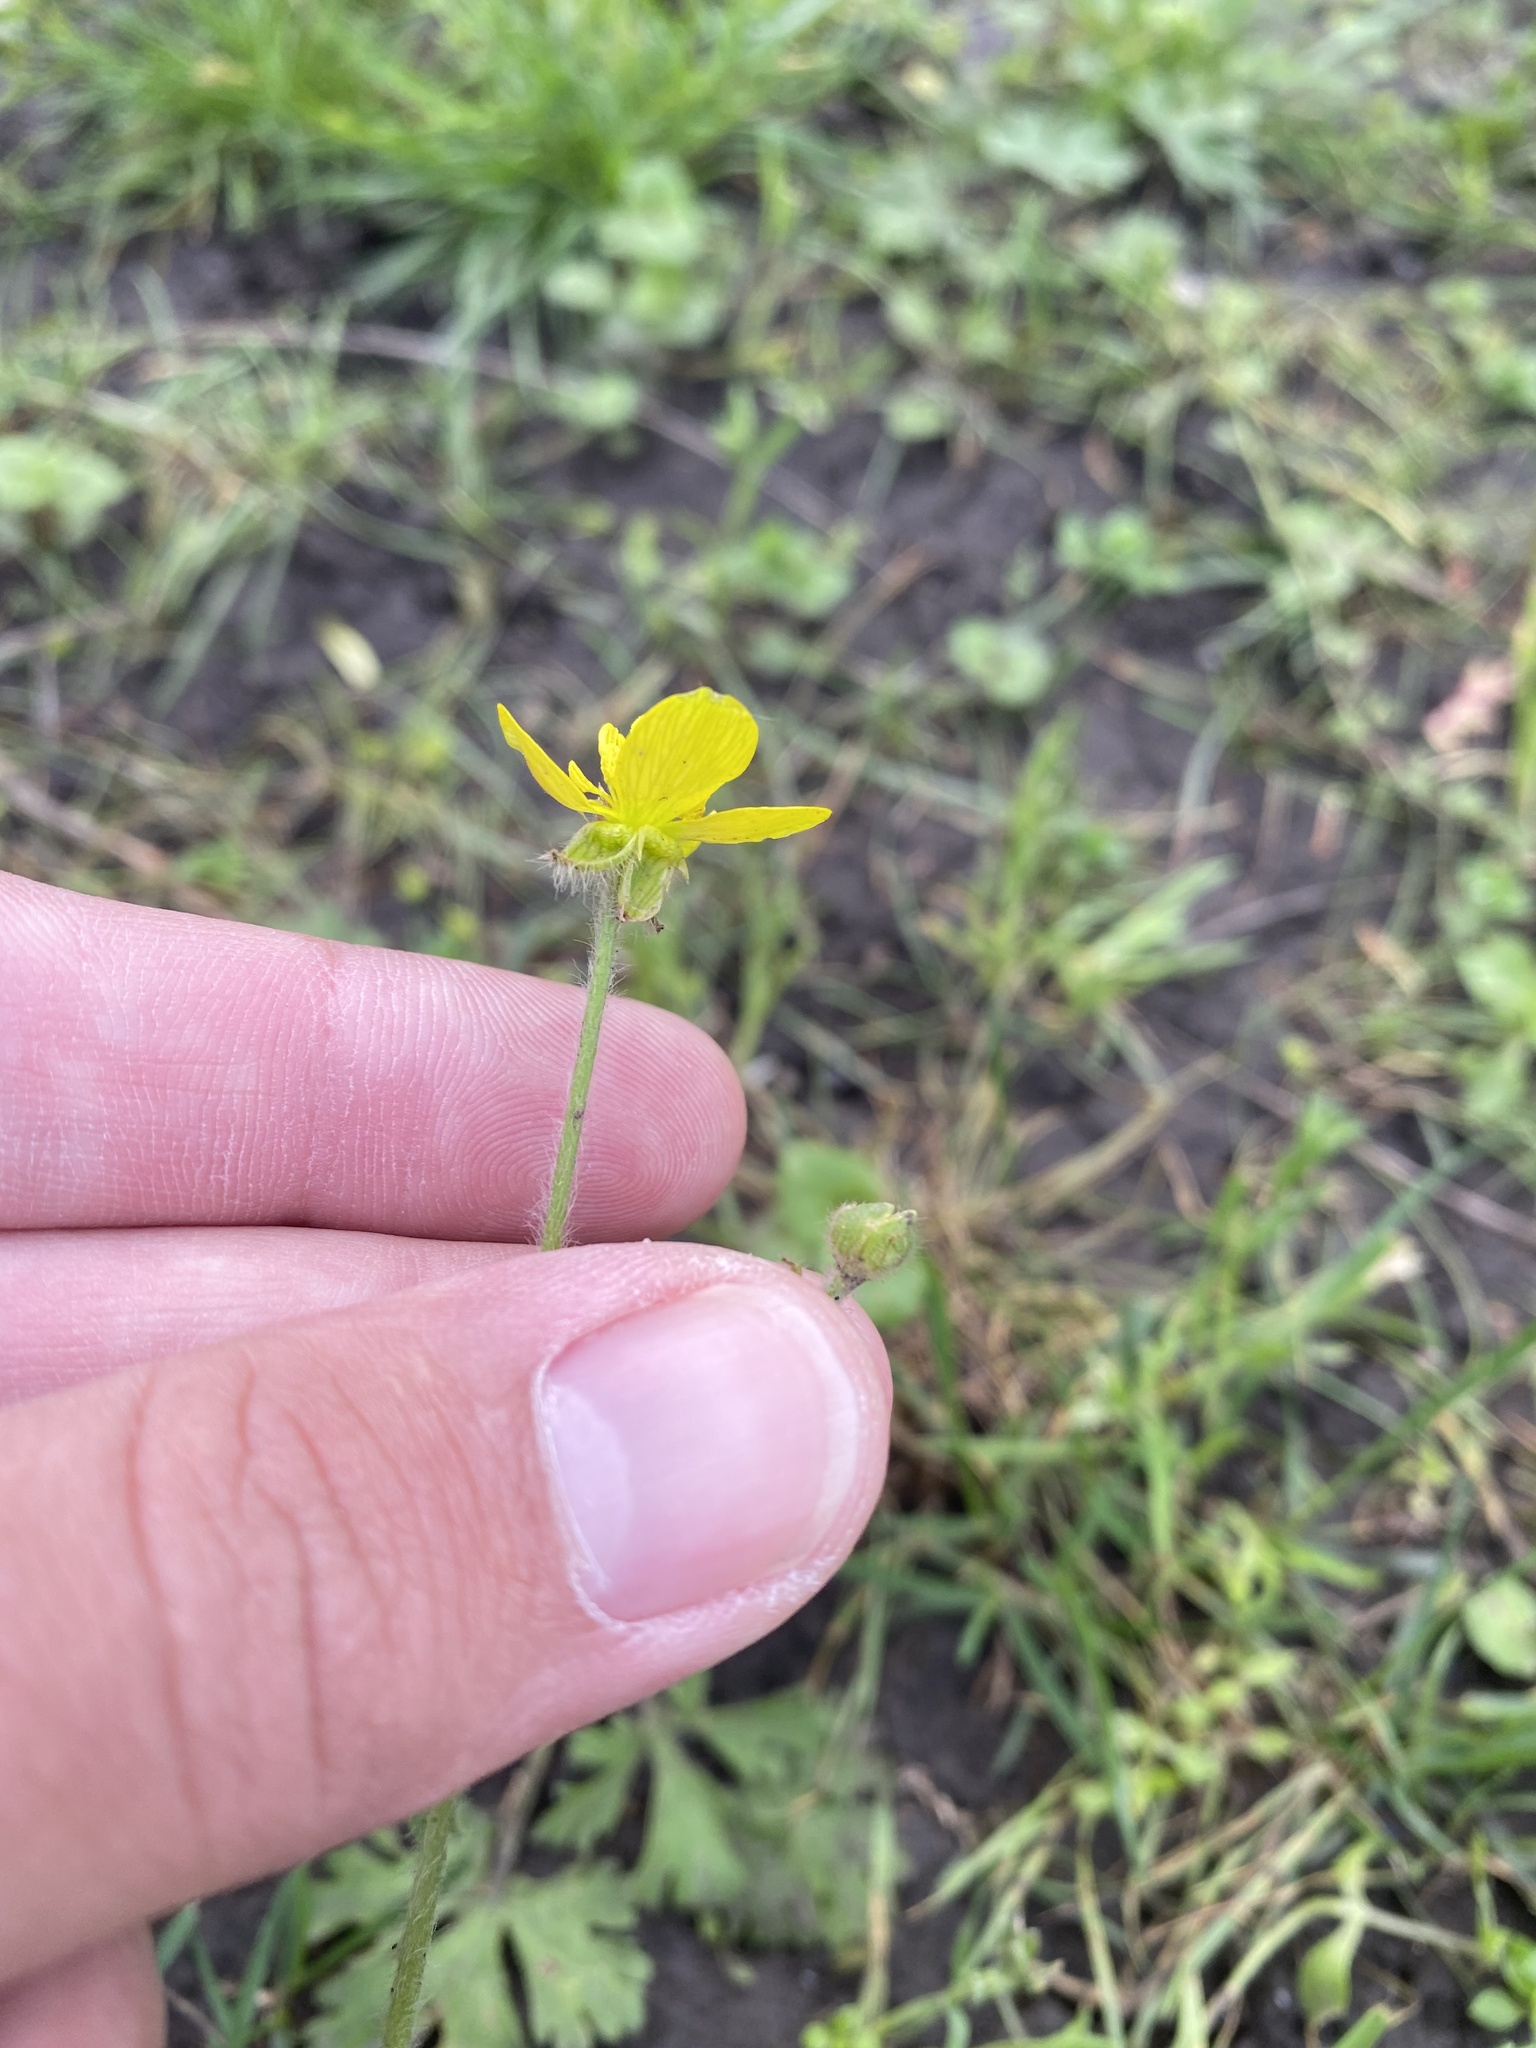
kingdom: Plantae
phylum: Tracheophyta
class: Magnoliopsida
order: Ranunculales
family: Ranunculaceae
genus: Ranunculus
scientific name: Ranunculus oxyspermus
